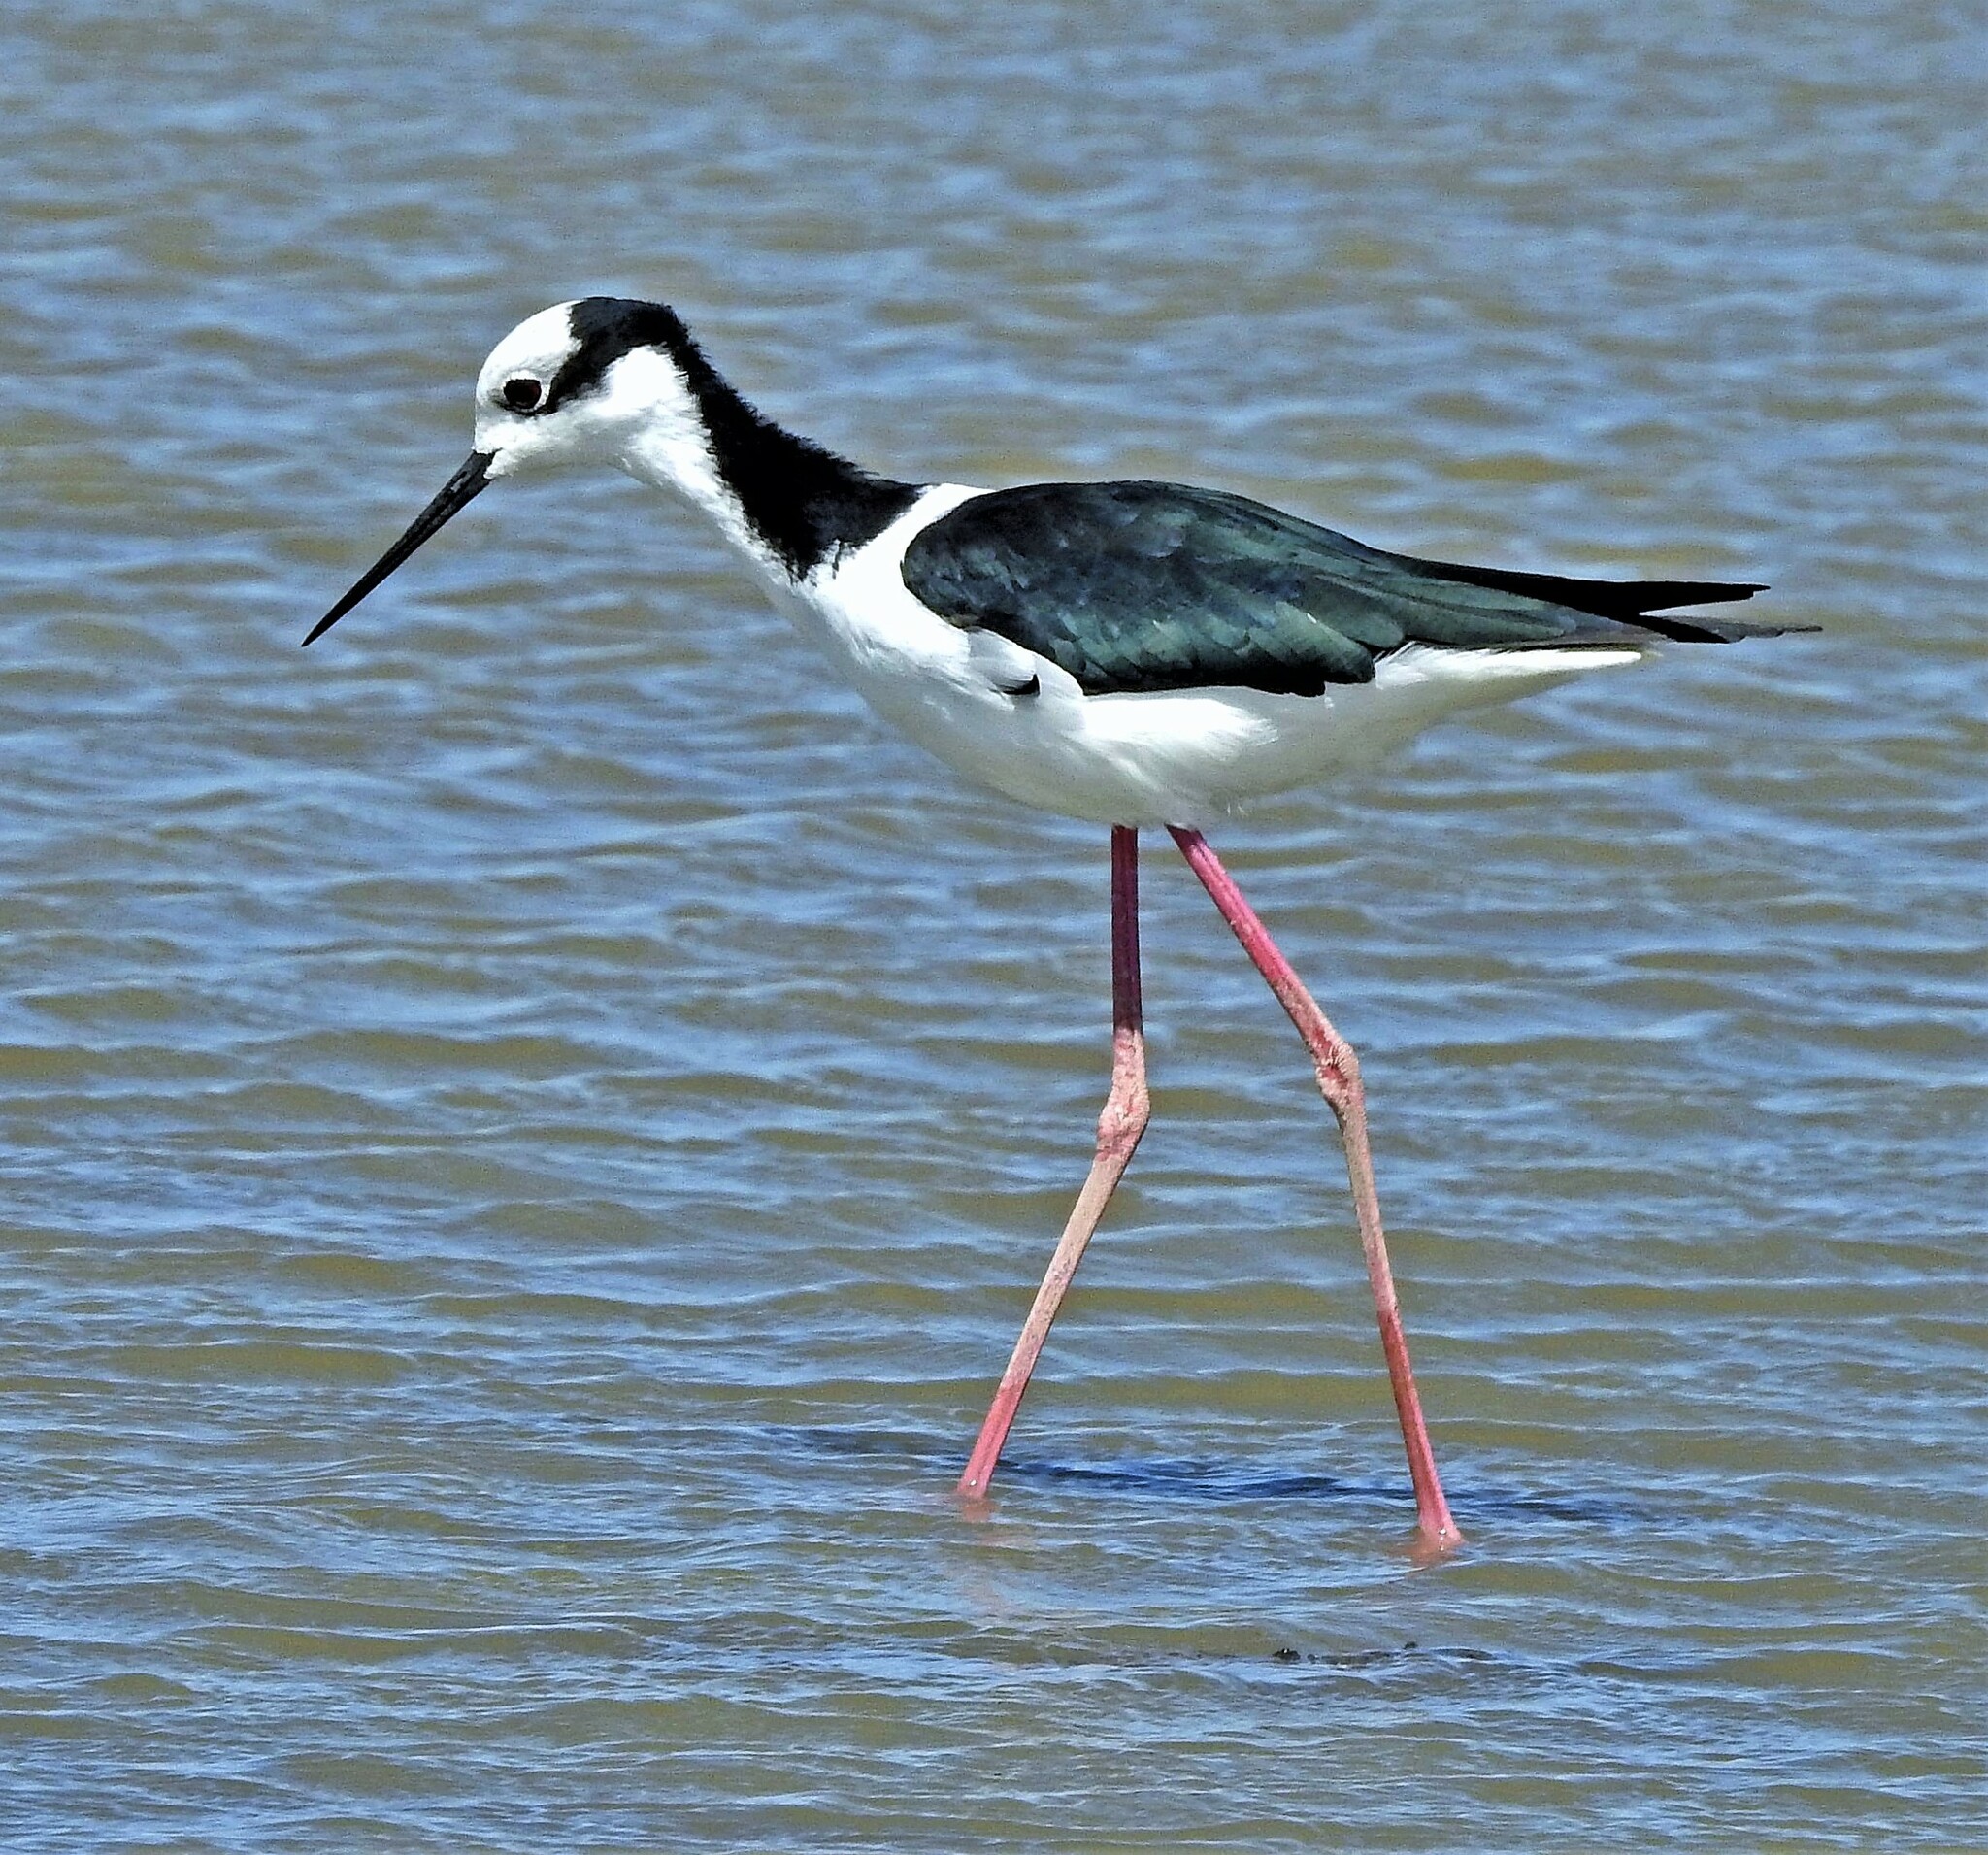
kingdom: Animalia
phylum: Chordata
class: Aves
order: Charadriiformes
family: Recurvirostridae
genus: Himantopus
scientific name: Himantopus mexicanus
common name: Black-necked stilt
